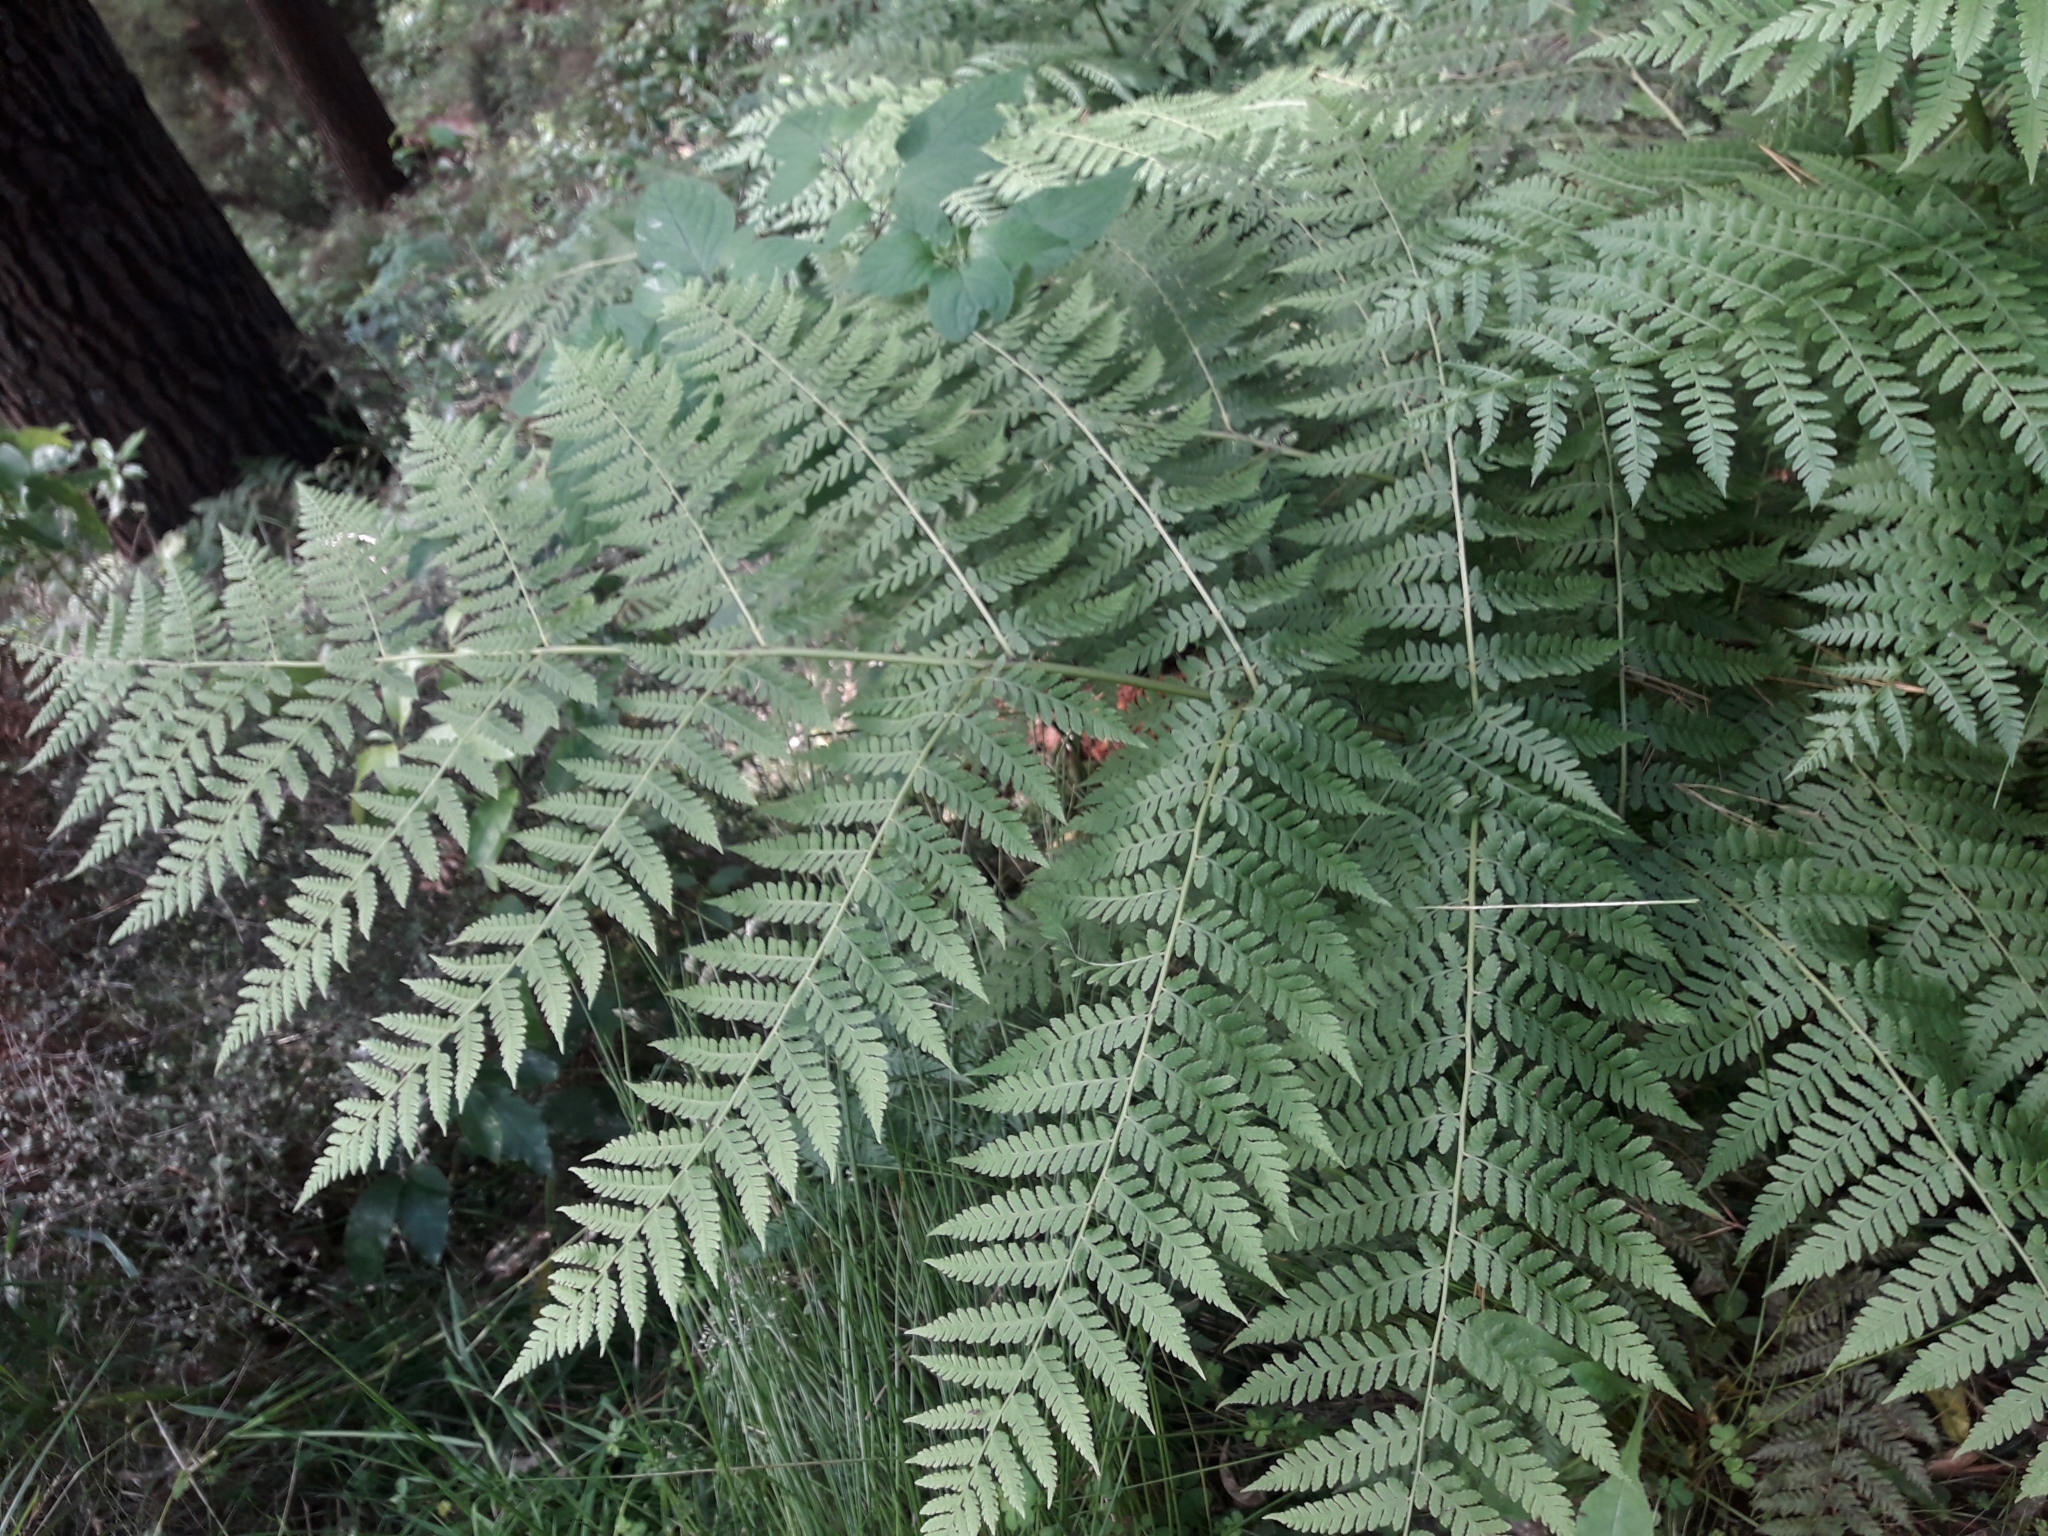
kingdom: Plantae
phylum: Tracheophyta
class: Polypodiopsida
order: Polypodiales
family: Athyriaceae
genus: Diplazium
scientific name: Diplazium australe
